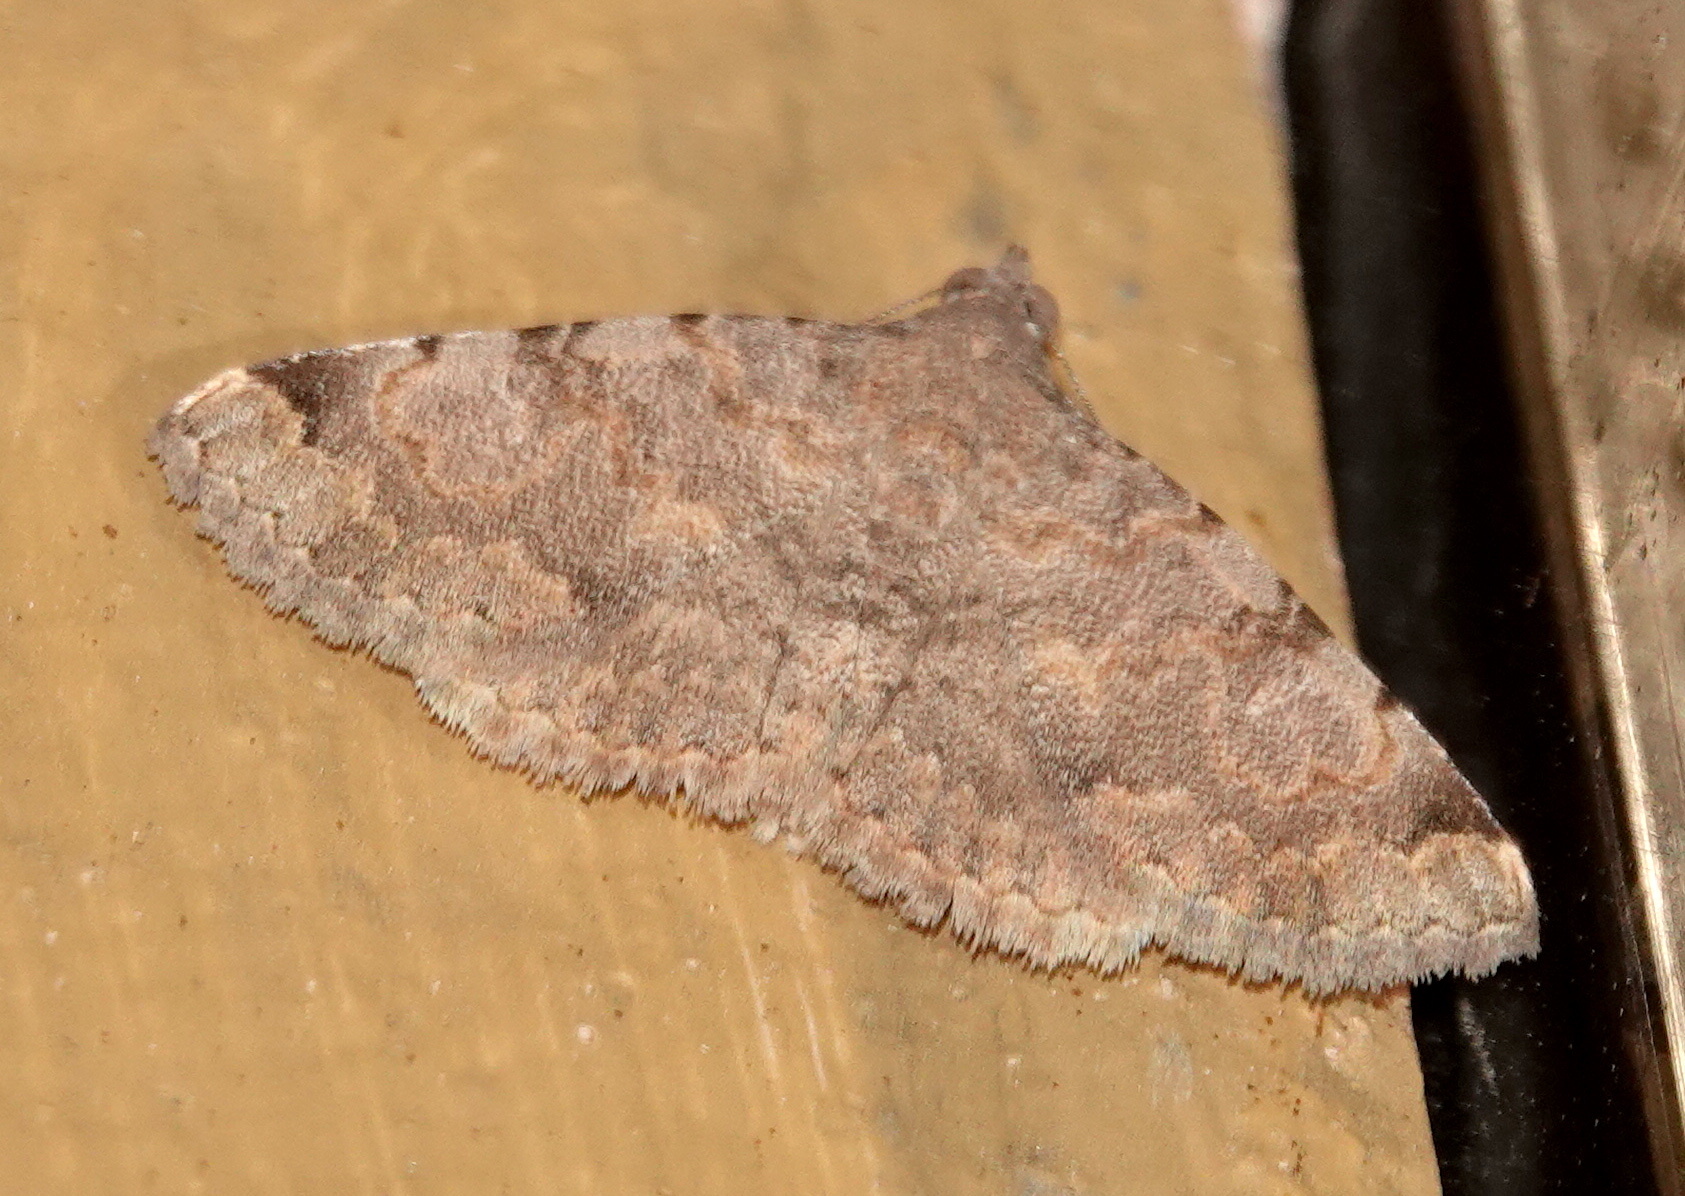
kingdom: Animalia
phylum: Arthropoda
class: Insecta
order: Lepidoptera
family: Erebidae
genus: Toxonprucha
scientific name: Toxonprucha volucris
